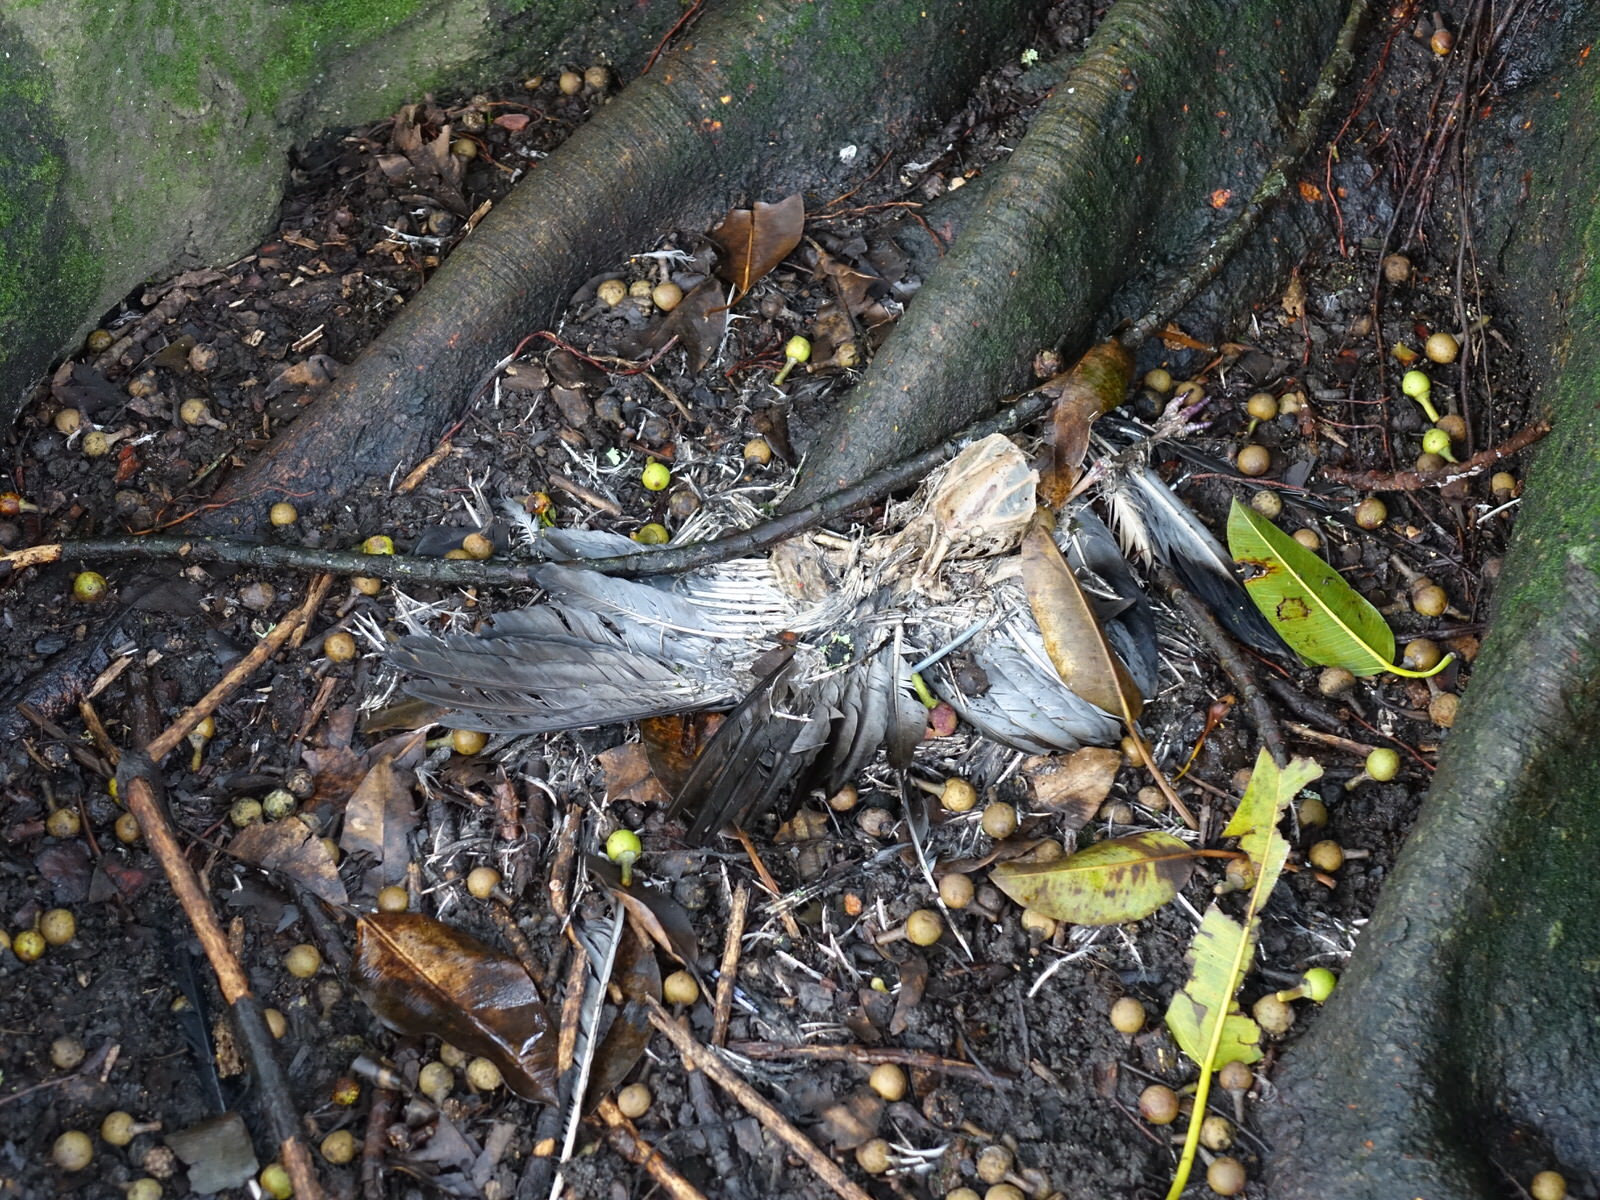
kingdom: Animalia
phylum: Chordata
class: Aves
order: Columbiformes
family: Columbidae
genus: Columba
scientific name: Columba livia
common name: Rock pigeon
